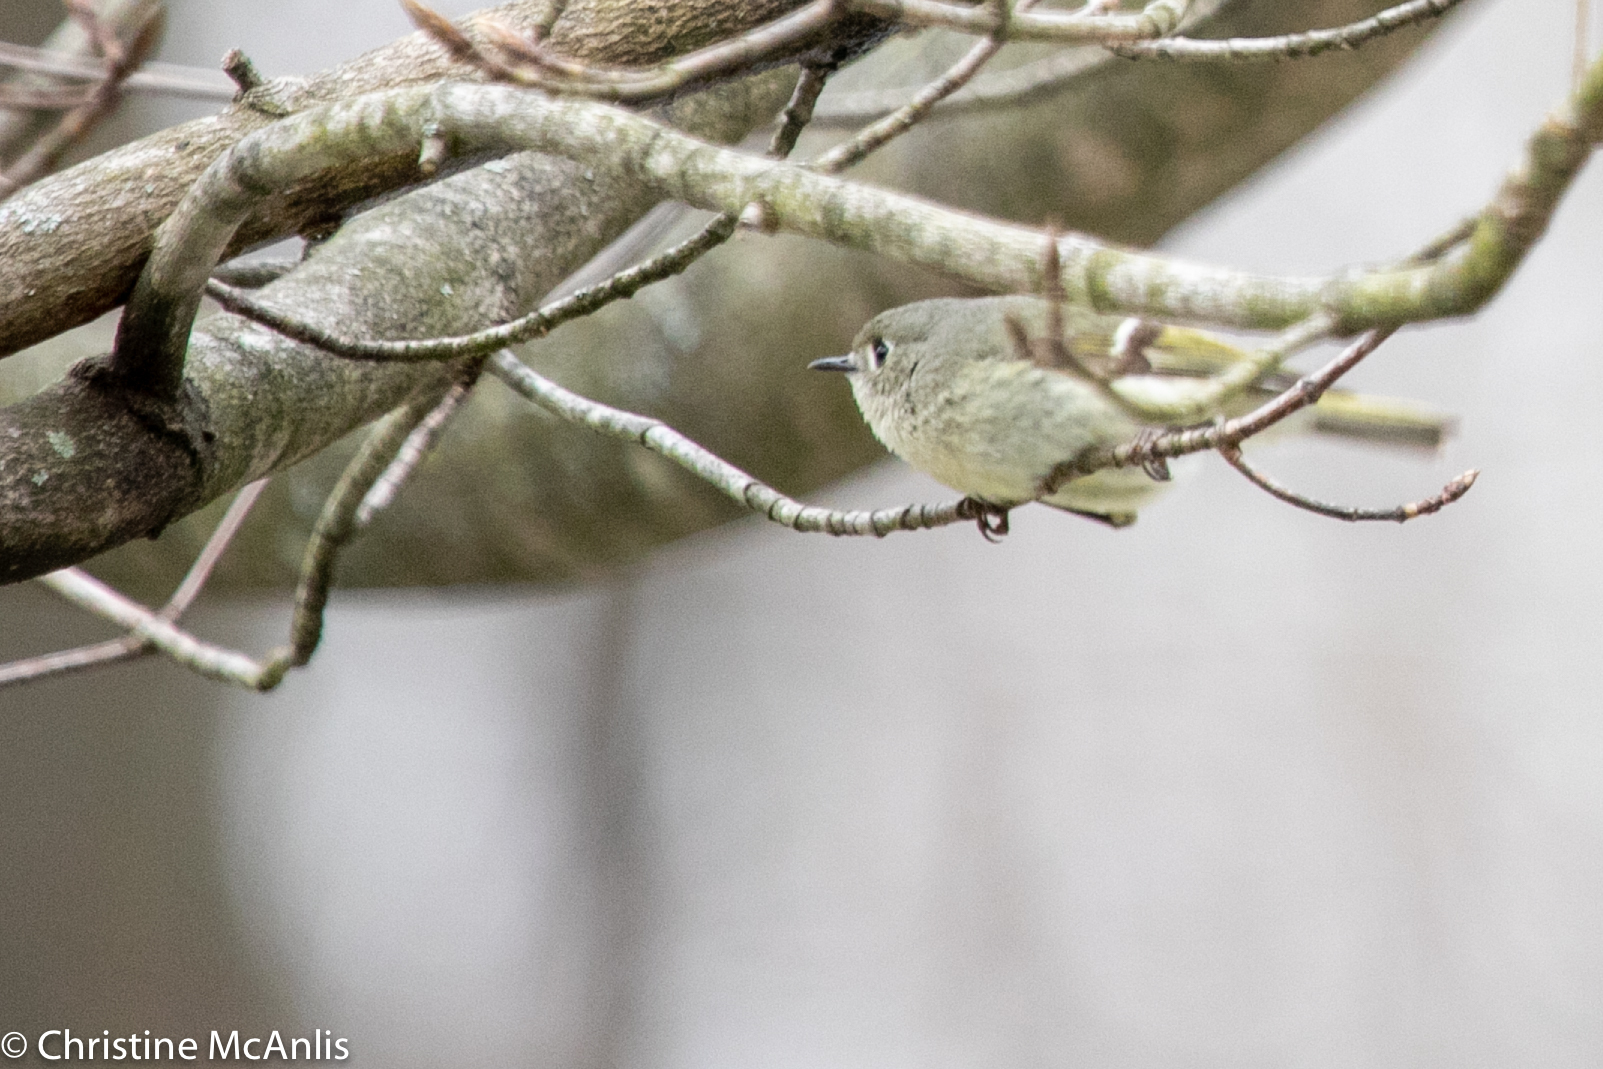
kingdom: Animalia
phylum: Chordata
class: Aves
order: Passeriformes
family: Regulidae
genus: Regulus
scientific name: Regulus calendula
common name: Ruby-crowned kinglet
